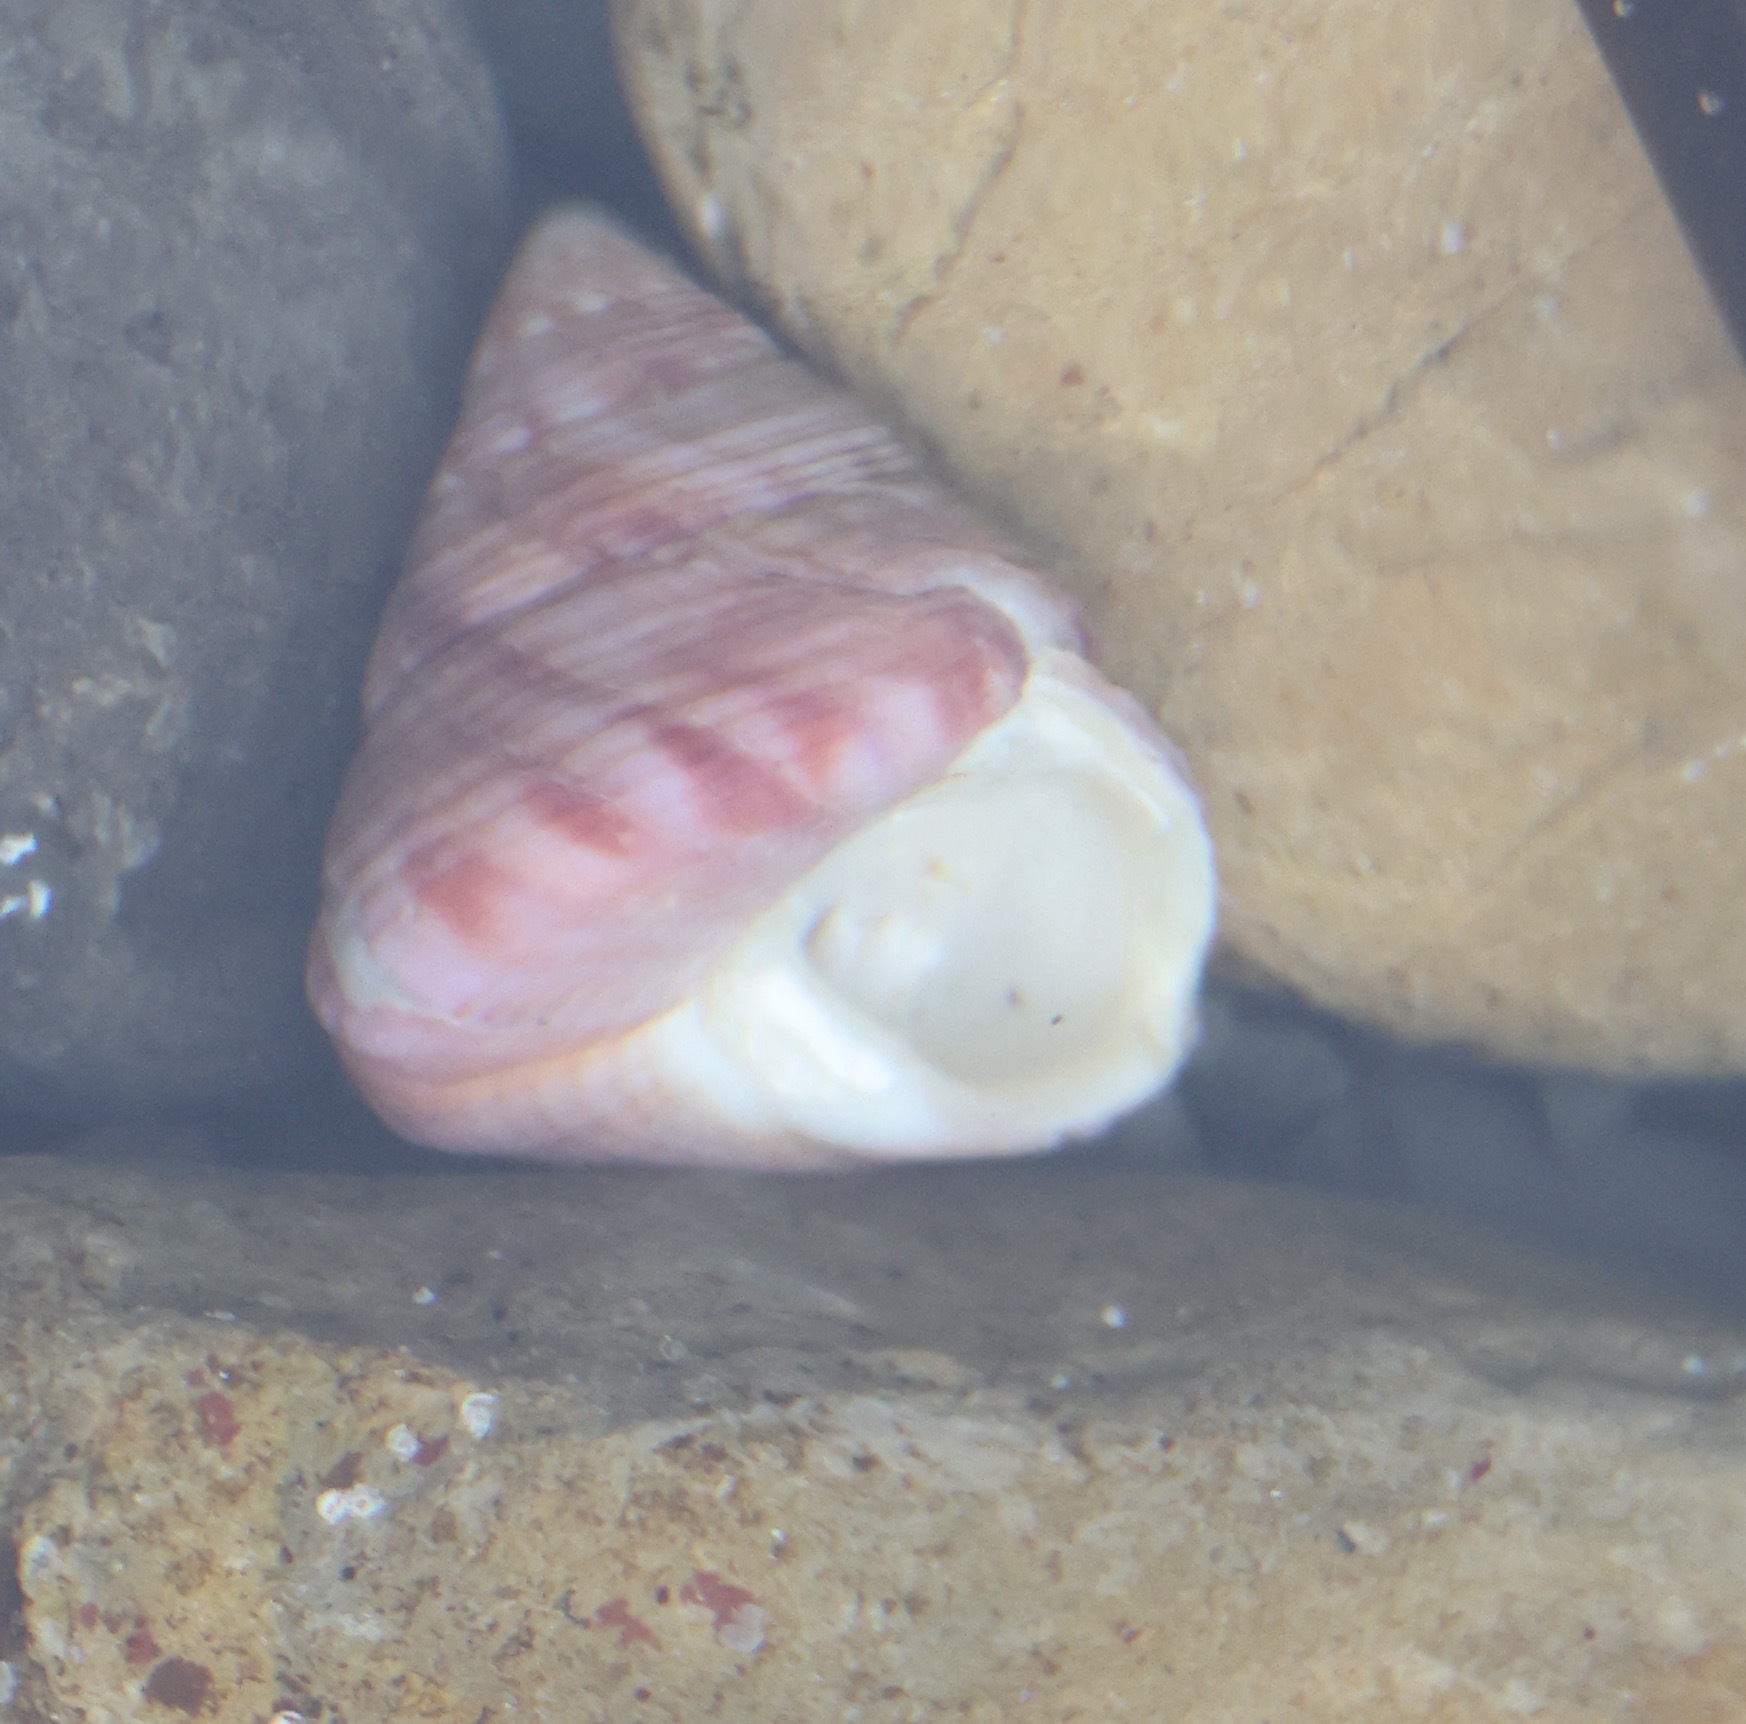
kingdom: Animalia
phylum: Mollusca
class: Gastropoda
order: Trochida
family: Calliostomatidae
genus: Calliostoma
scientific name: Calliostoma zizyphinum
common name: Painted top shell
